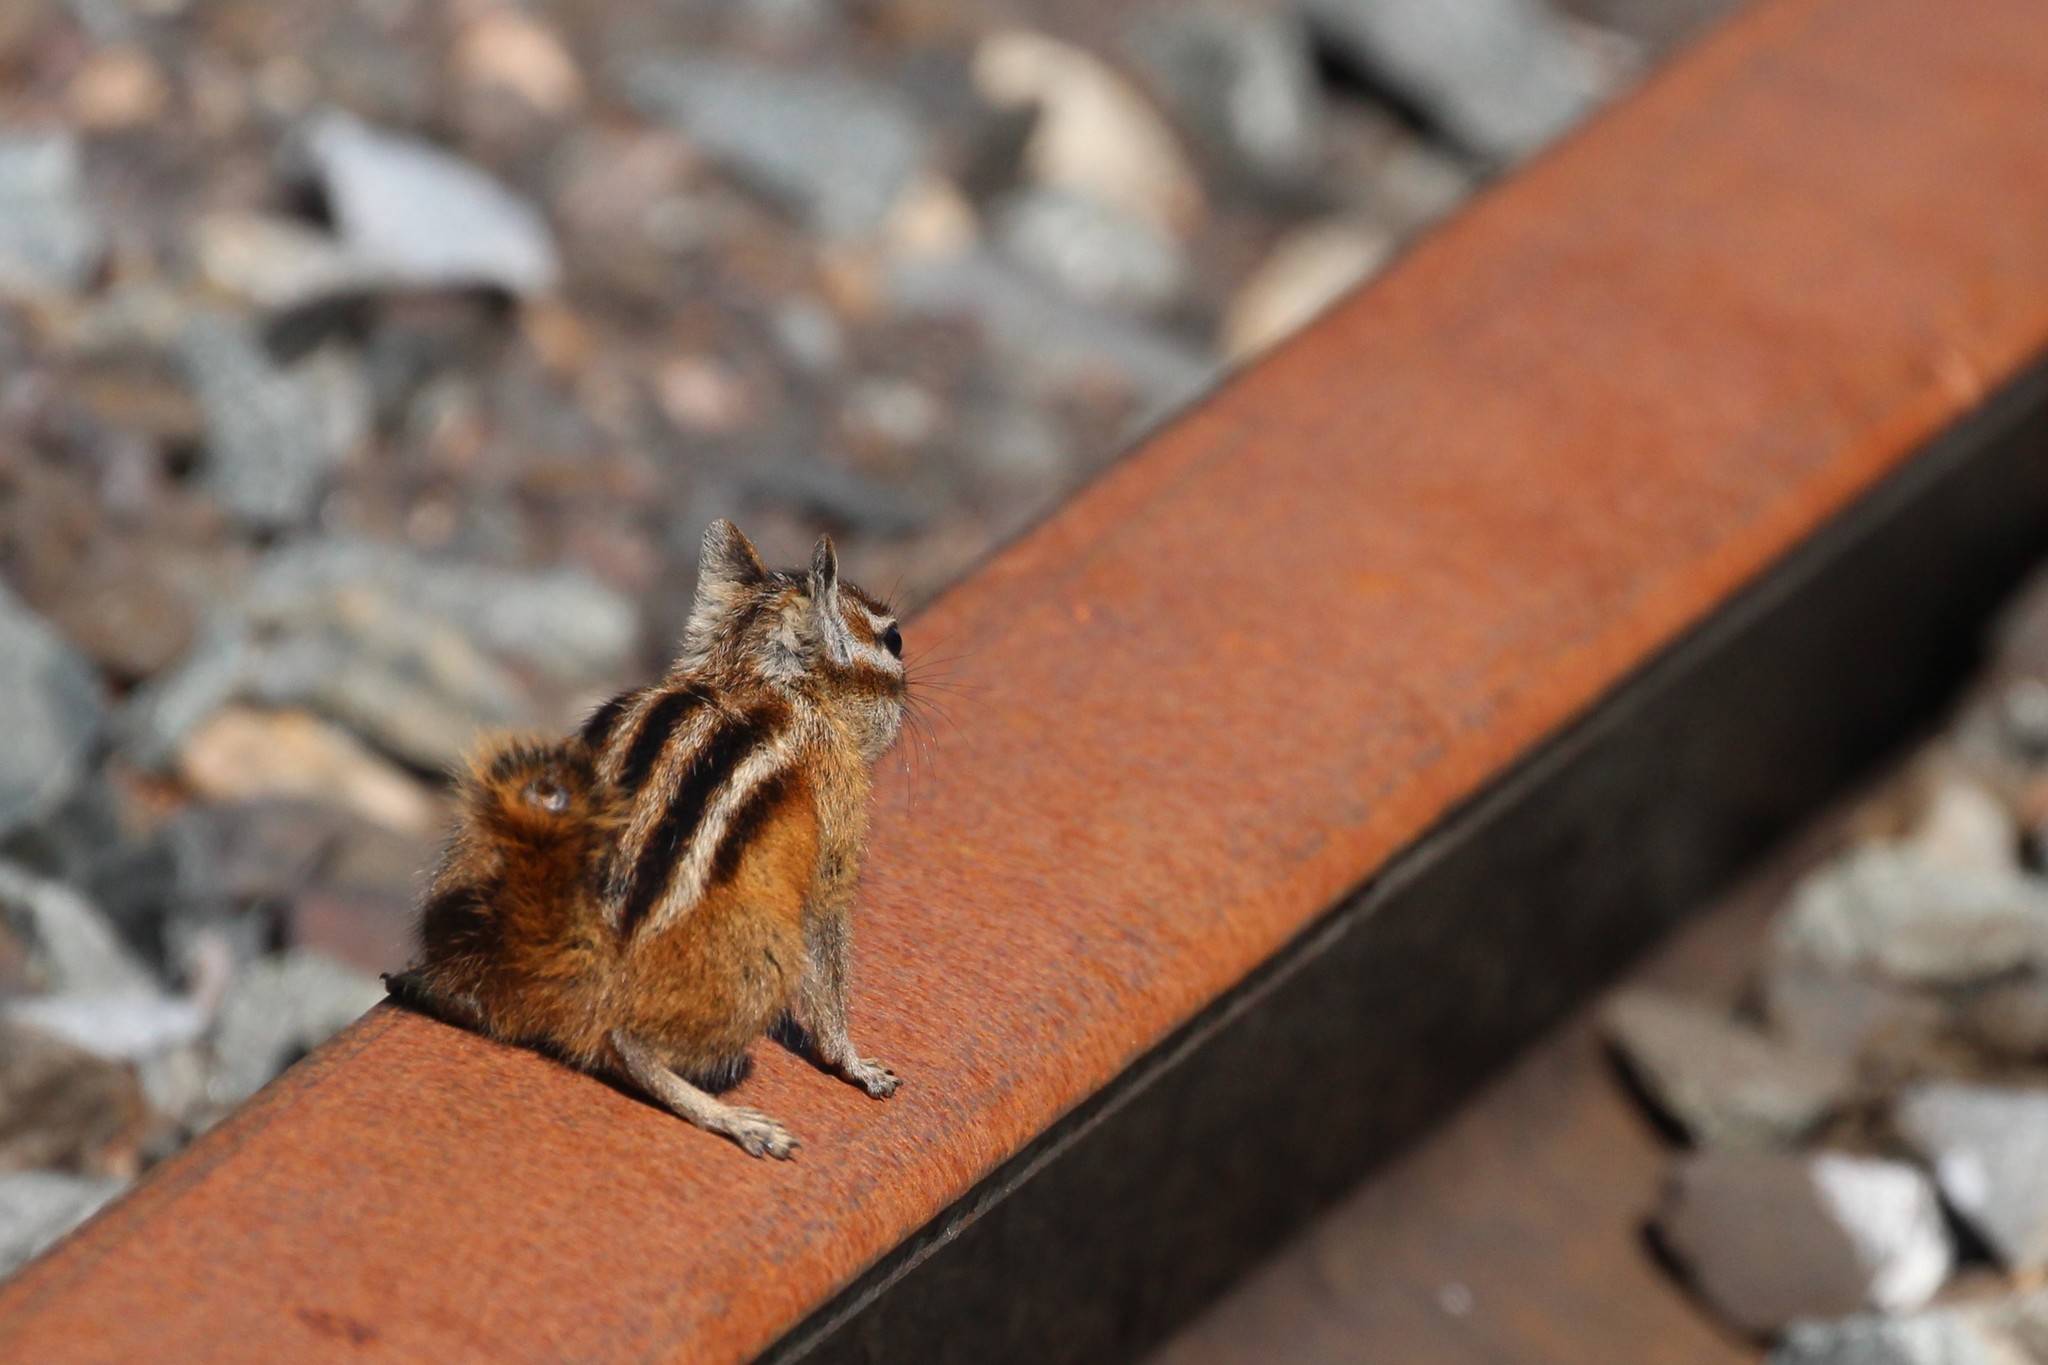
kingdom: Animalia
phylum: Chordata
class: Mammalia
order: Rodentia
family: Sciuridae
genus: Tamias
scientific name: Tamias minimus
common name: Least chipmunk
